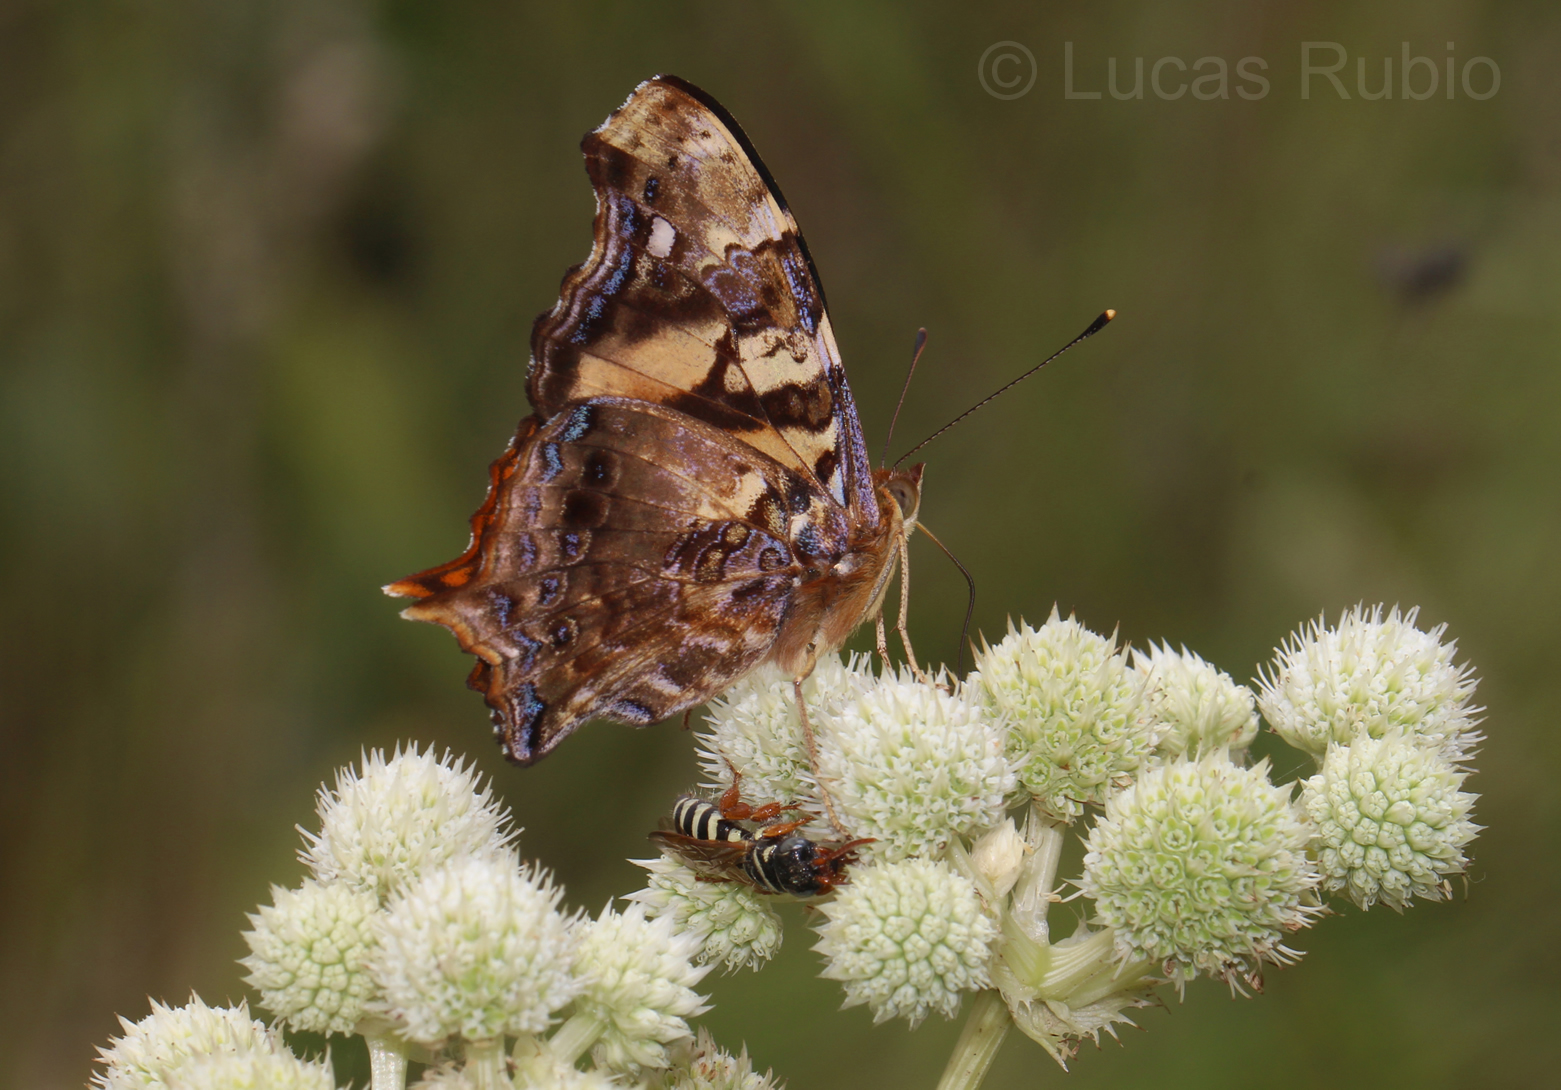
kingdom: Animalia
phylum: Arthropoda
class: Insecta
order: Lepidoptera
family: Nymphalidae
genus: Hypanartia
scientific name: Hypanartia bella
